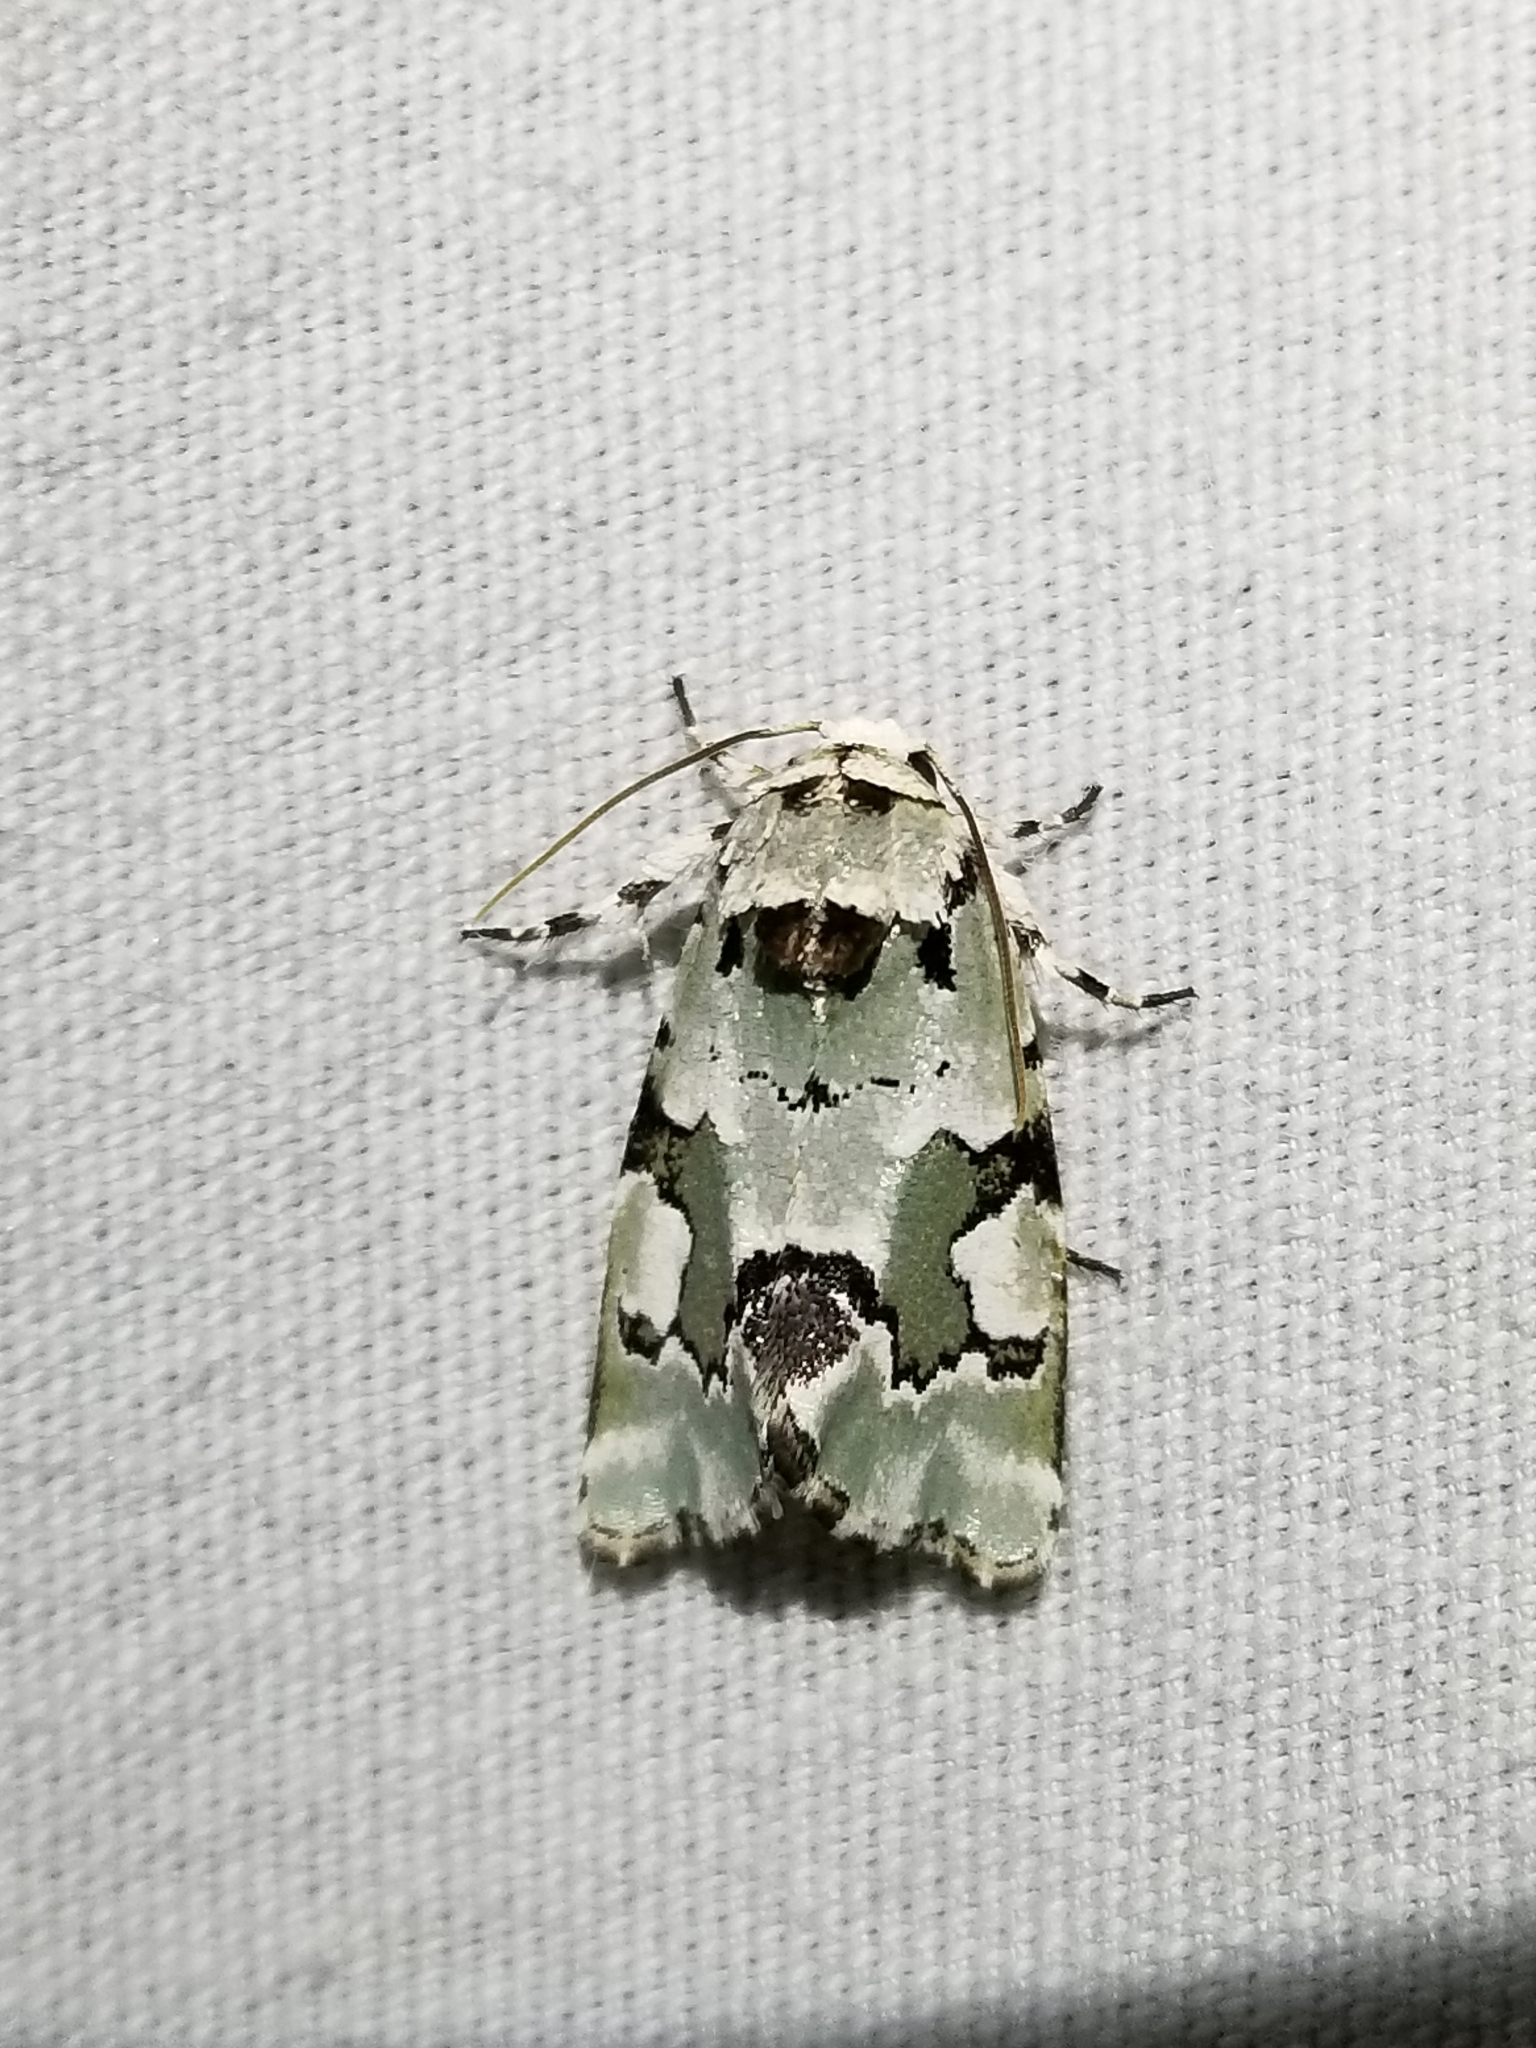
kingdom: Animalia
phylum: Arthropoda
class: Insecta
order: Lepidoptera
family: Noctuidae
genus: Emarginea
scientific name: Emarginea percara
